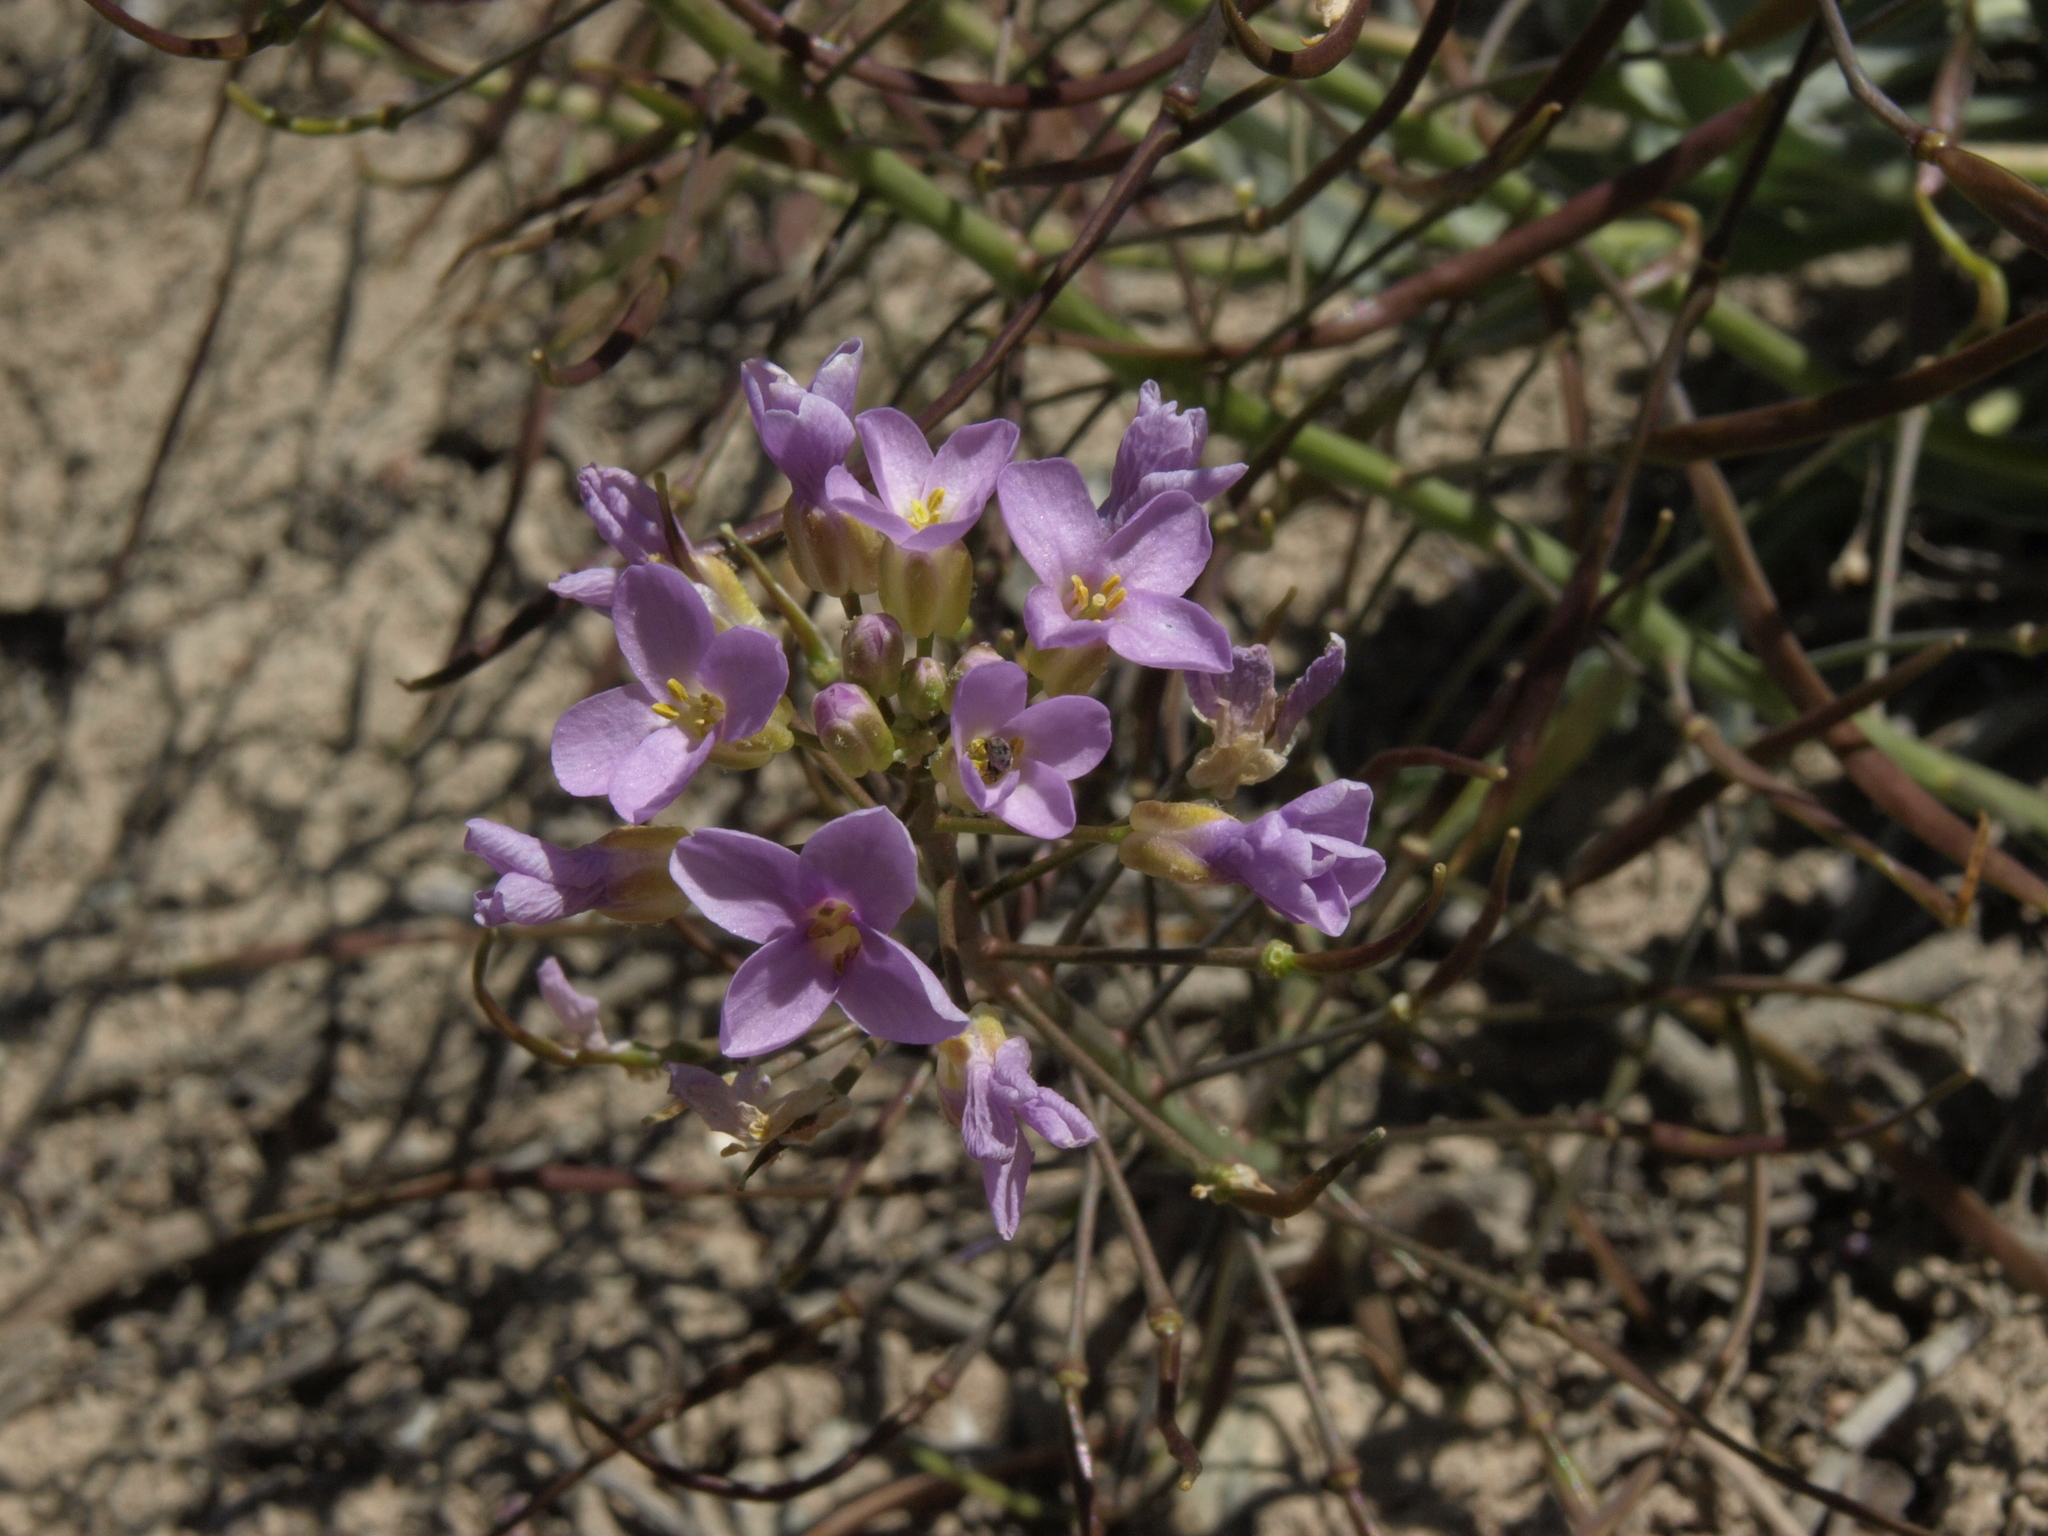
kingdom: Plantae
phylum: Tracheophyta
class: Magnoliopsida
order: Brassicales
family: Brassicaceae
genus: Phoenicaulis
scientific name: Phoenicaulis cheiranthoides
